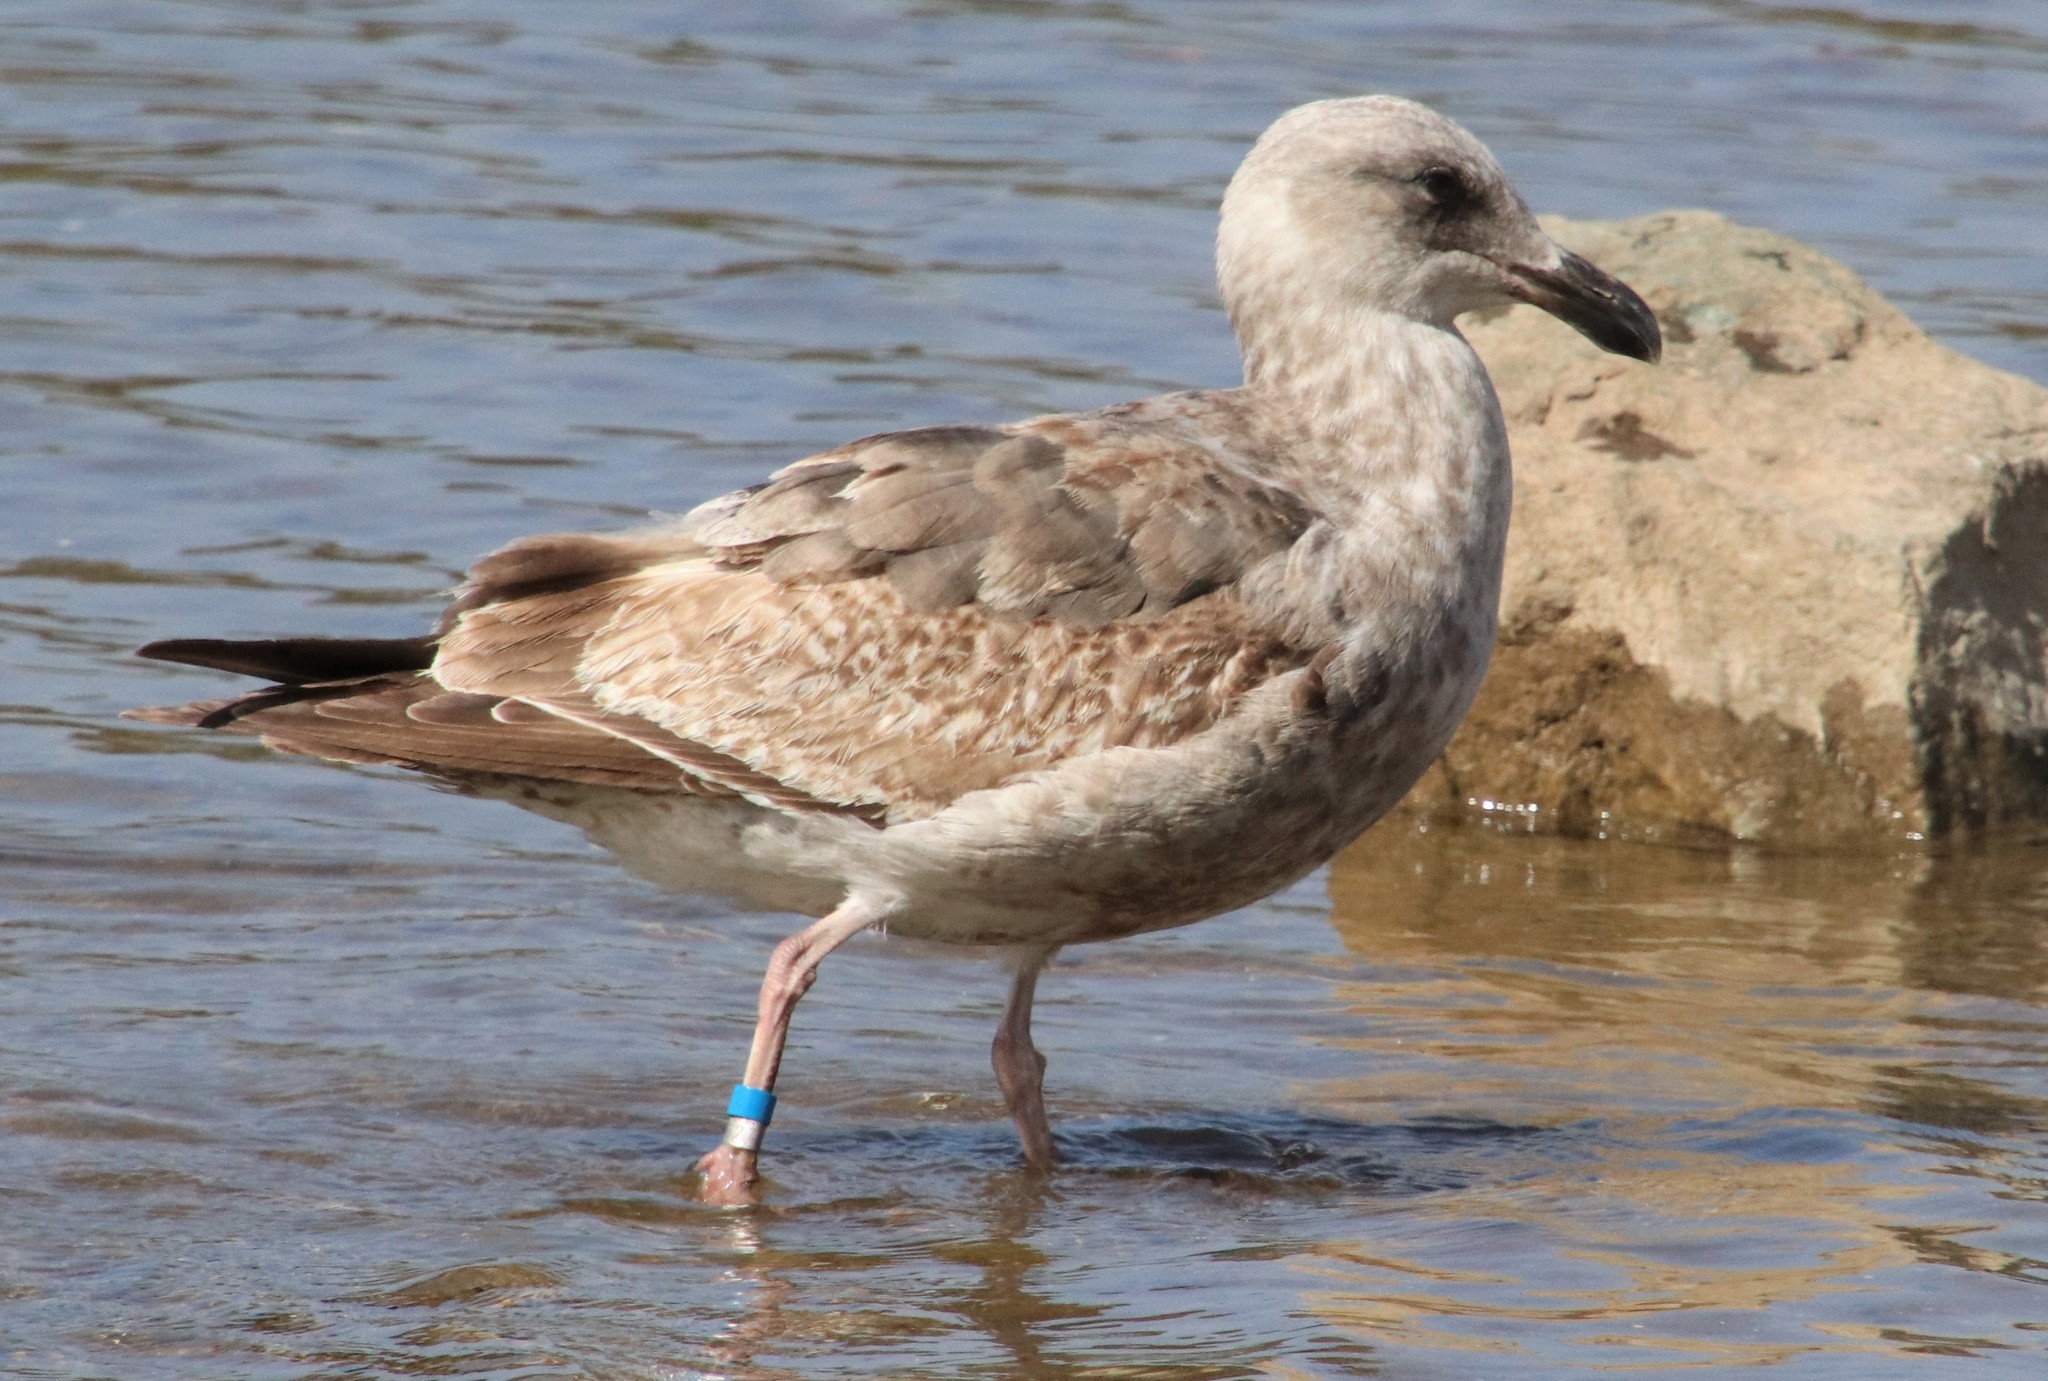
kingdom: Animalia
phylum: Chordata
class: Aves
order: Charadriiformes
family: Laridae
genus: Larus
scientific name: Larus occidentalis
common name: Western gull
